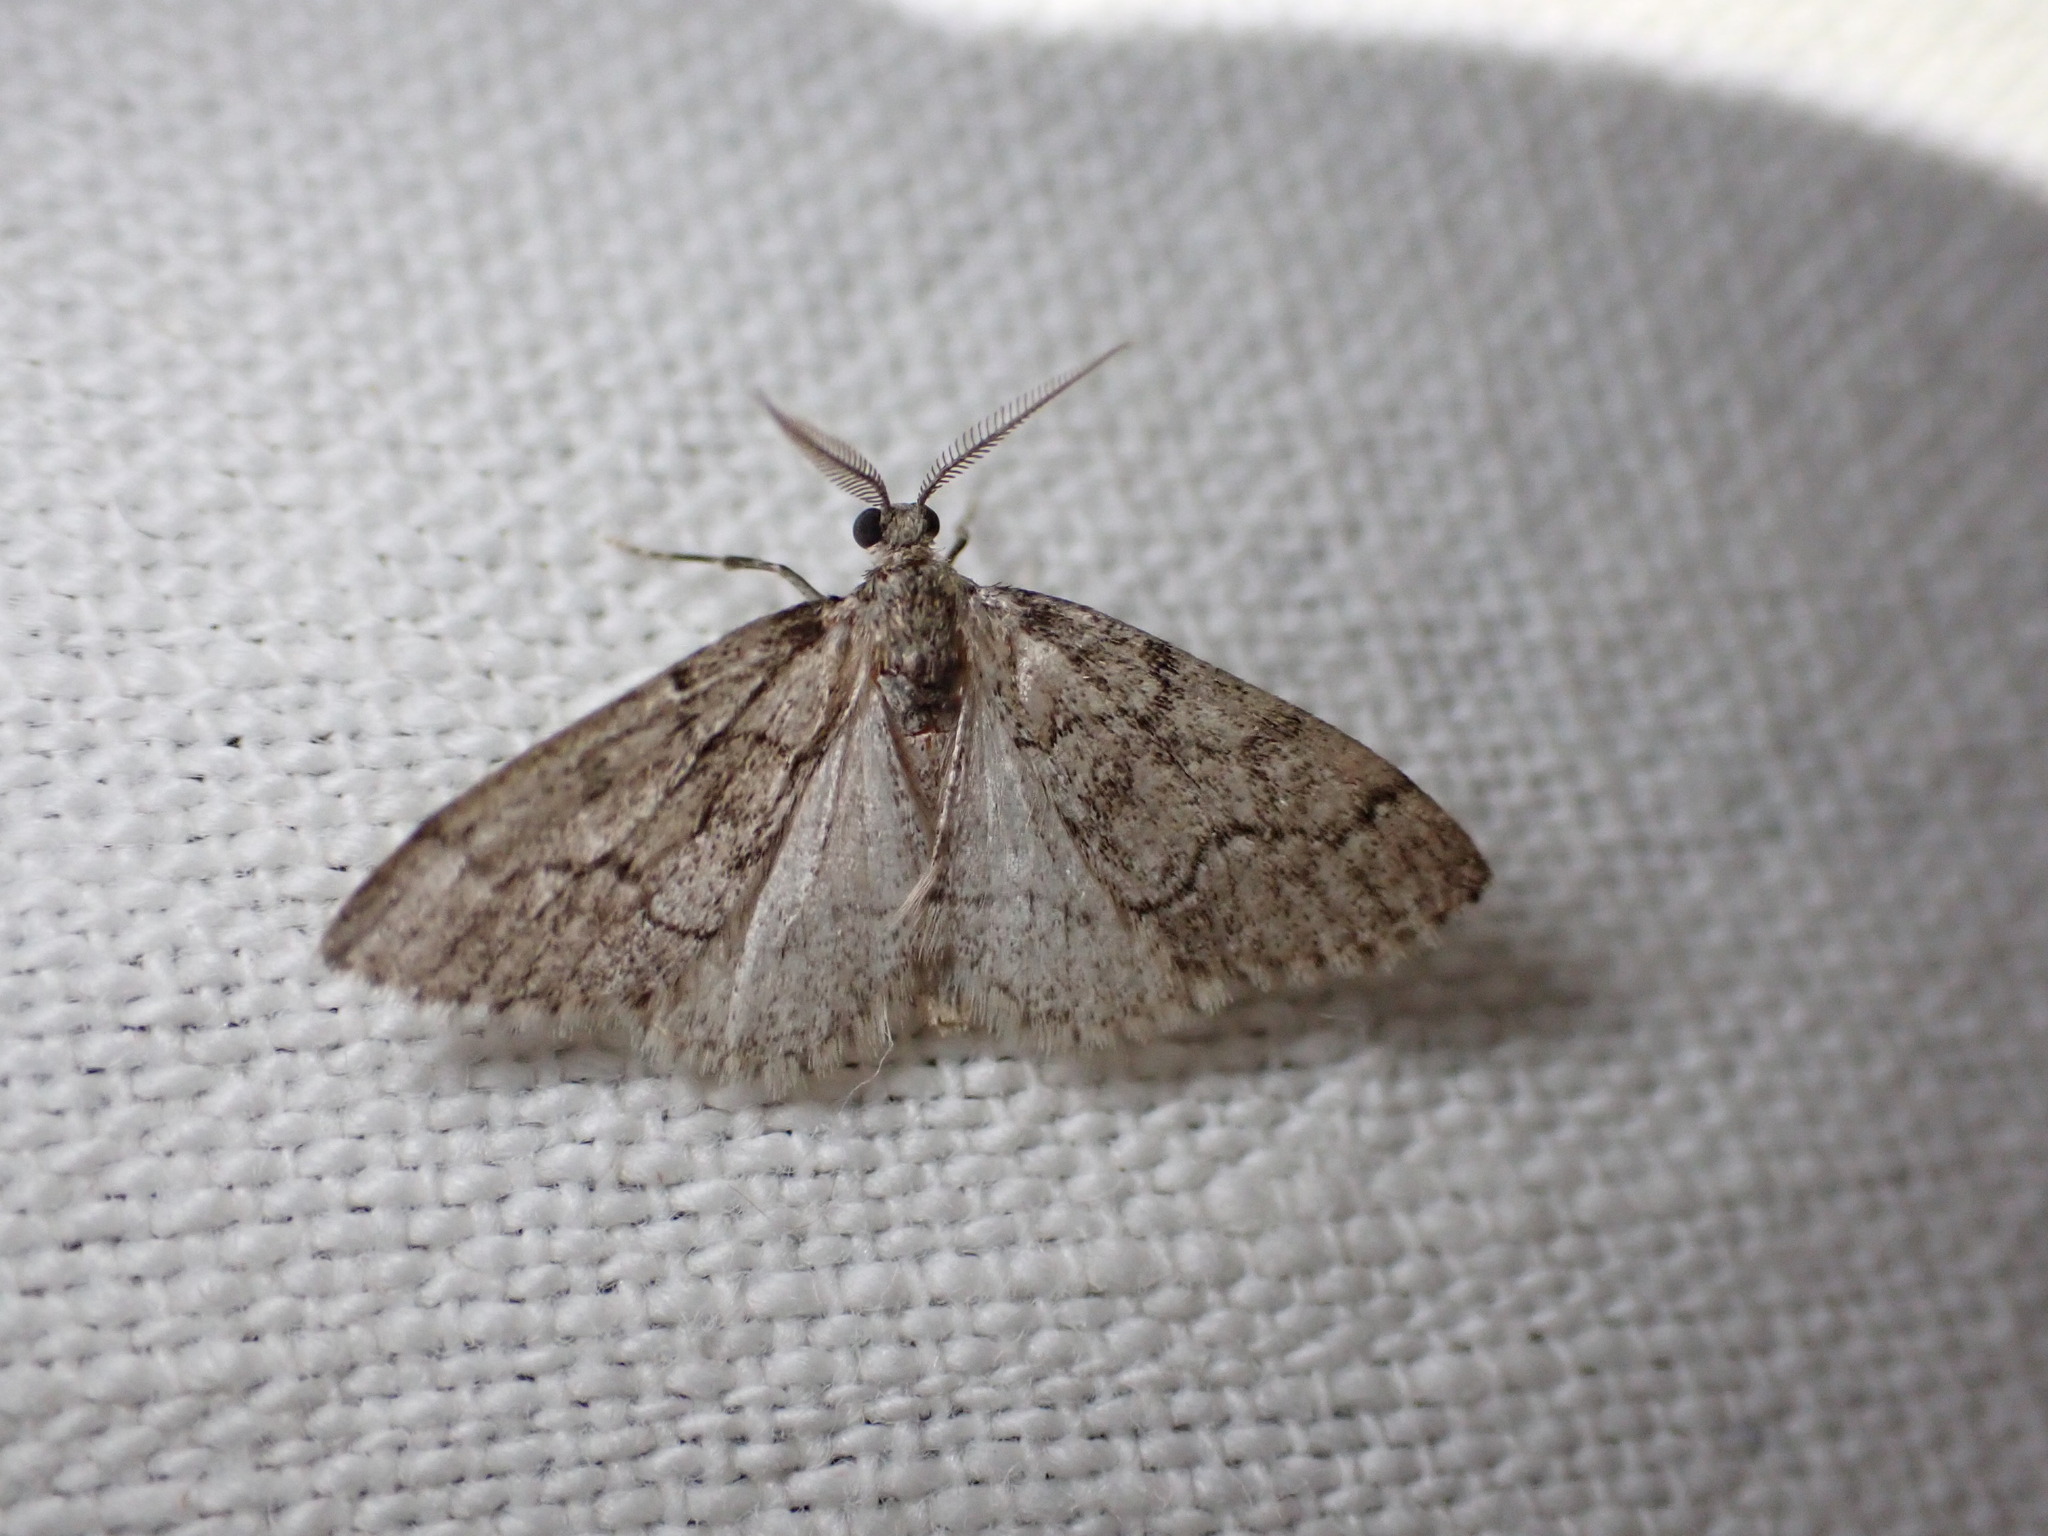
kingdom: Animalia
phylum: Arthropoda
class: Insecta
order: Lepidoptera
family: Geometridae
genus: Tephronia
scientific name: Tephronia sepiaria
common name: Dusky carpet
